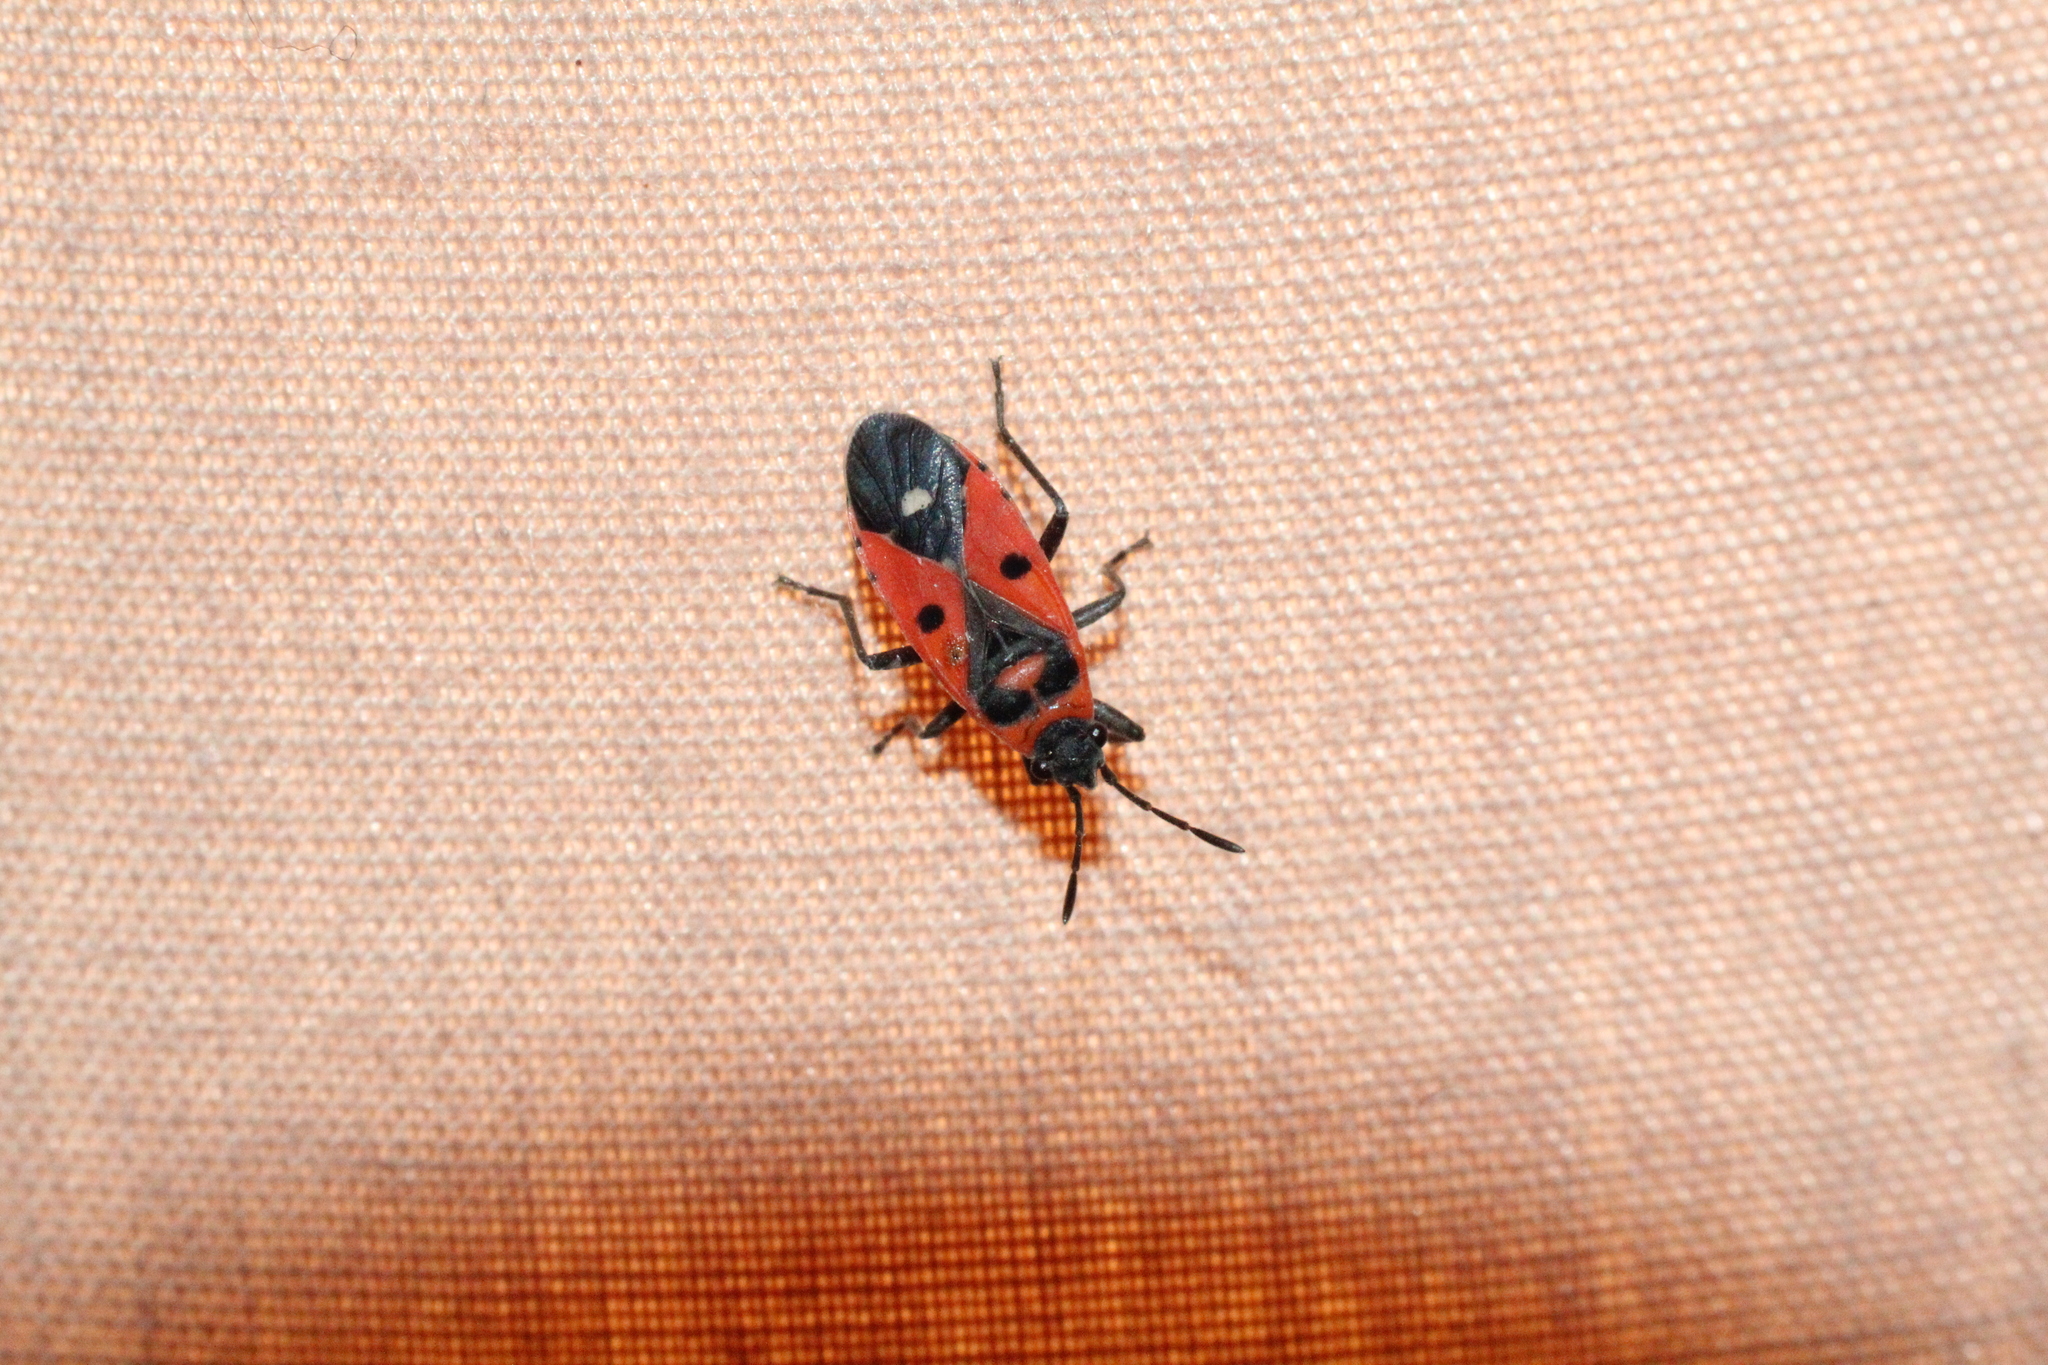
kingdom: Animalia
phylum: Arthropoda
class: Insecta
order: Hemiptera
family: Lygaeidae
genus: Melanocoryphus
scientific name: Melanocoryphus albomaculatus
